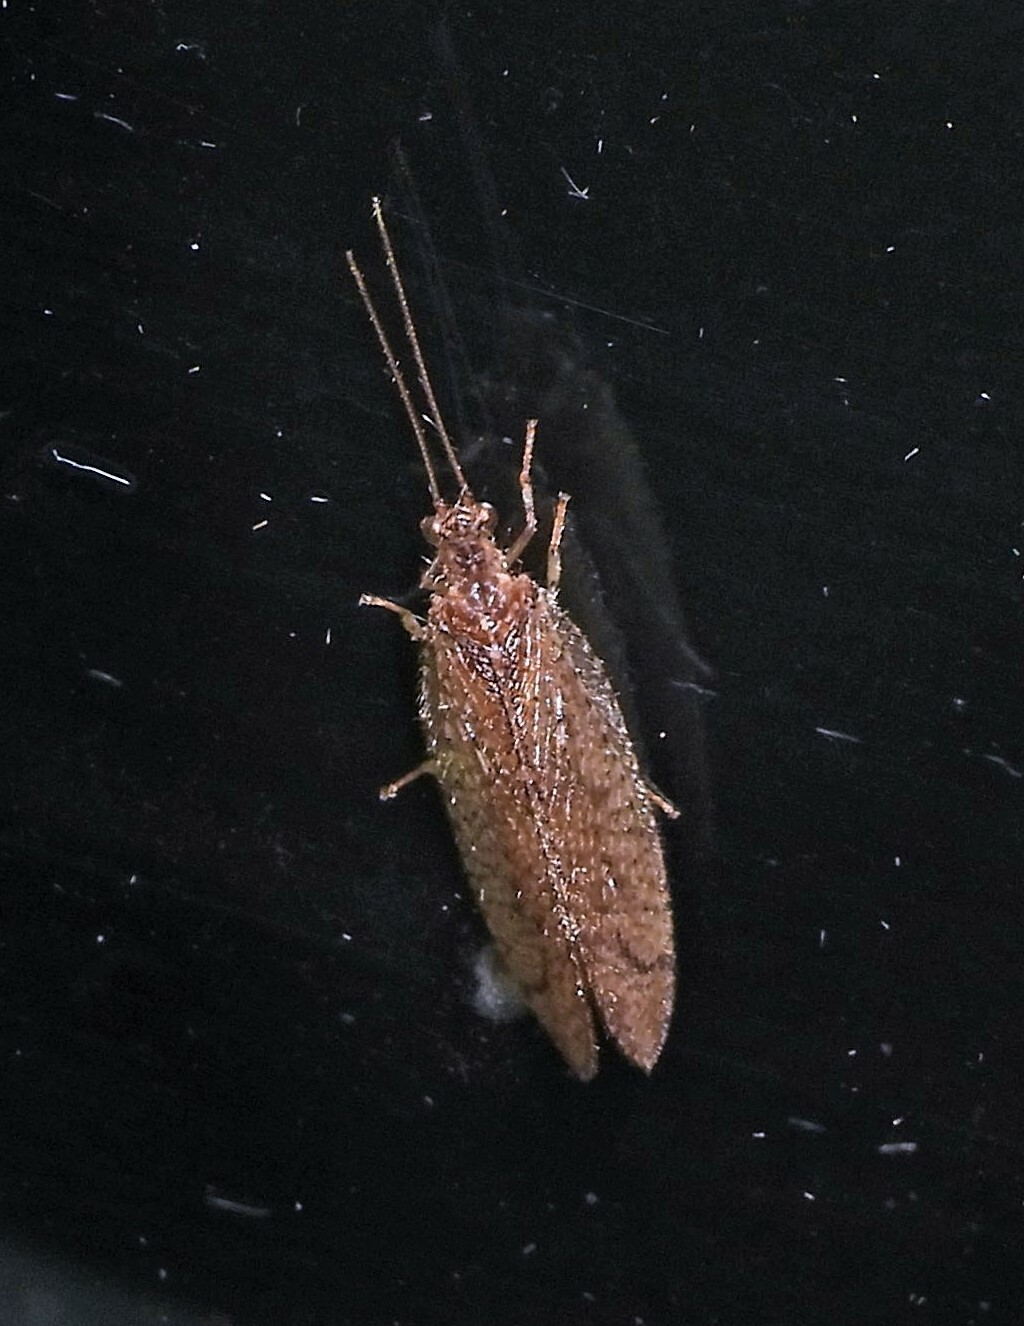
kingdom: Animalia
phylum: Arthropoda
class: Insecta
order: Neuroptera
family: Hemerobiidae
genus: Nusalala
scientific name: Nusalala tessellata
